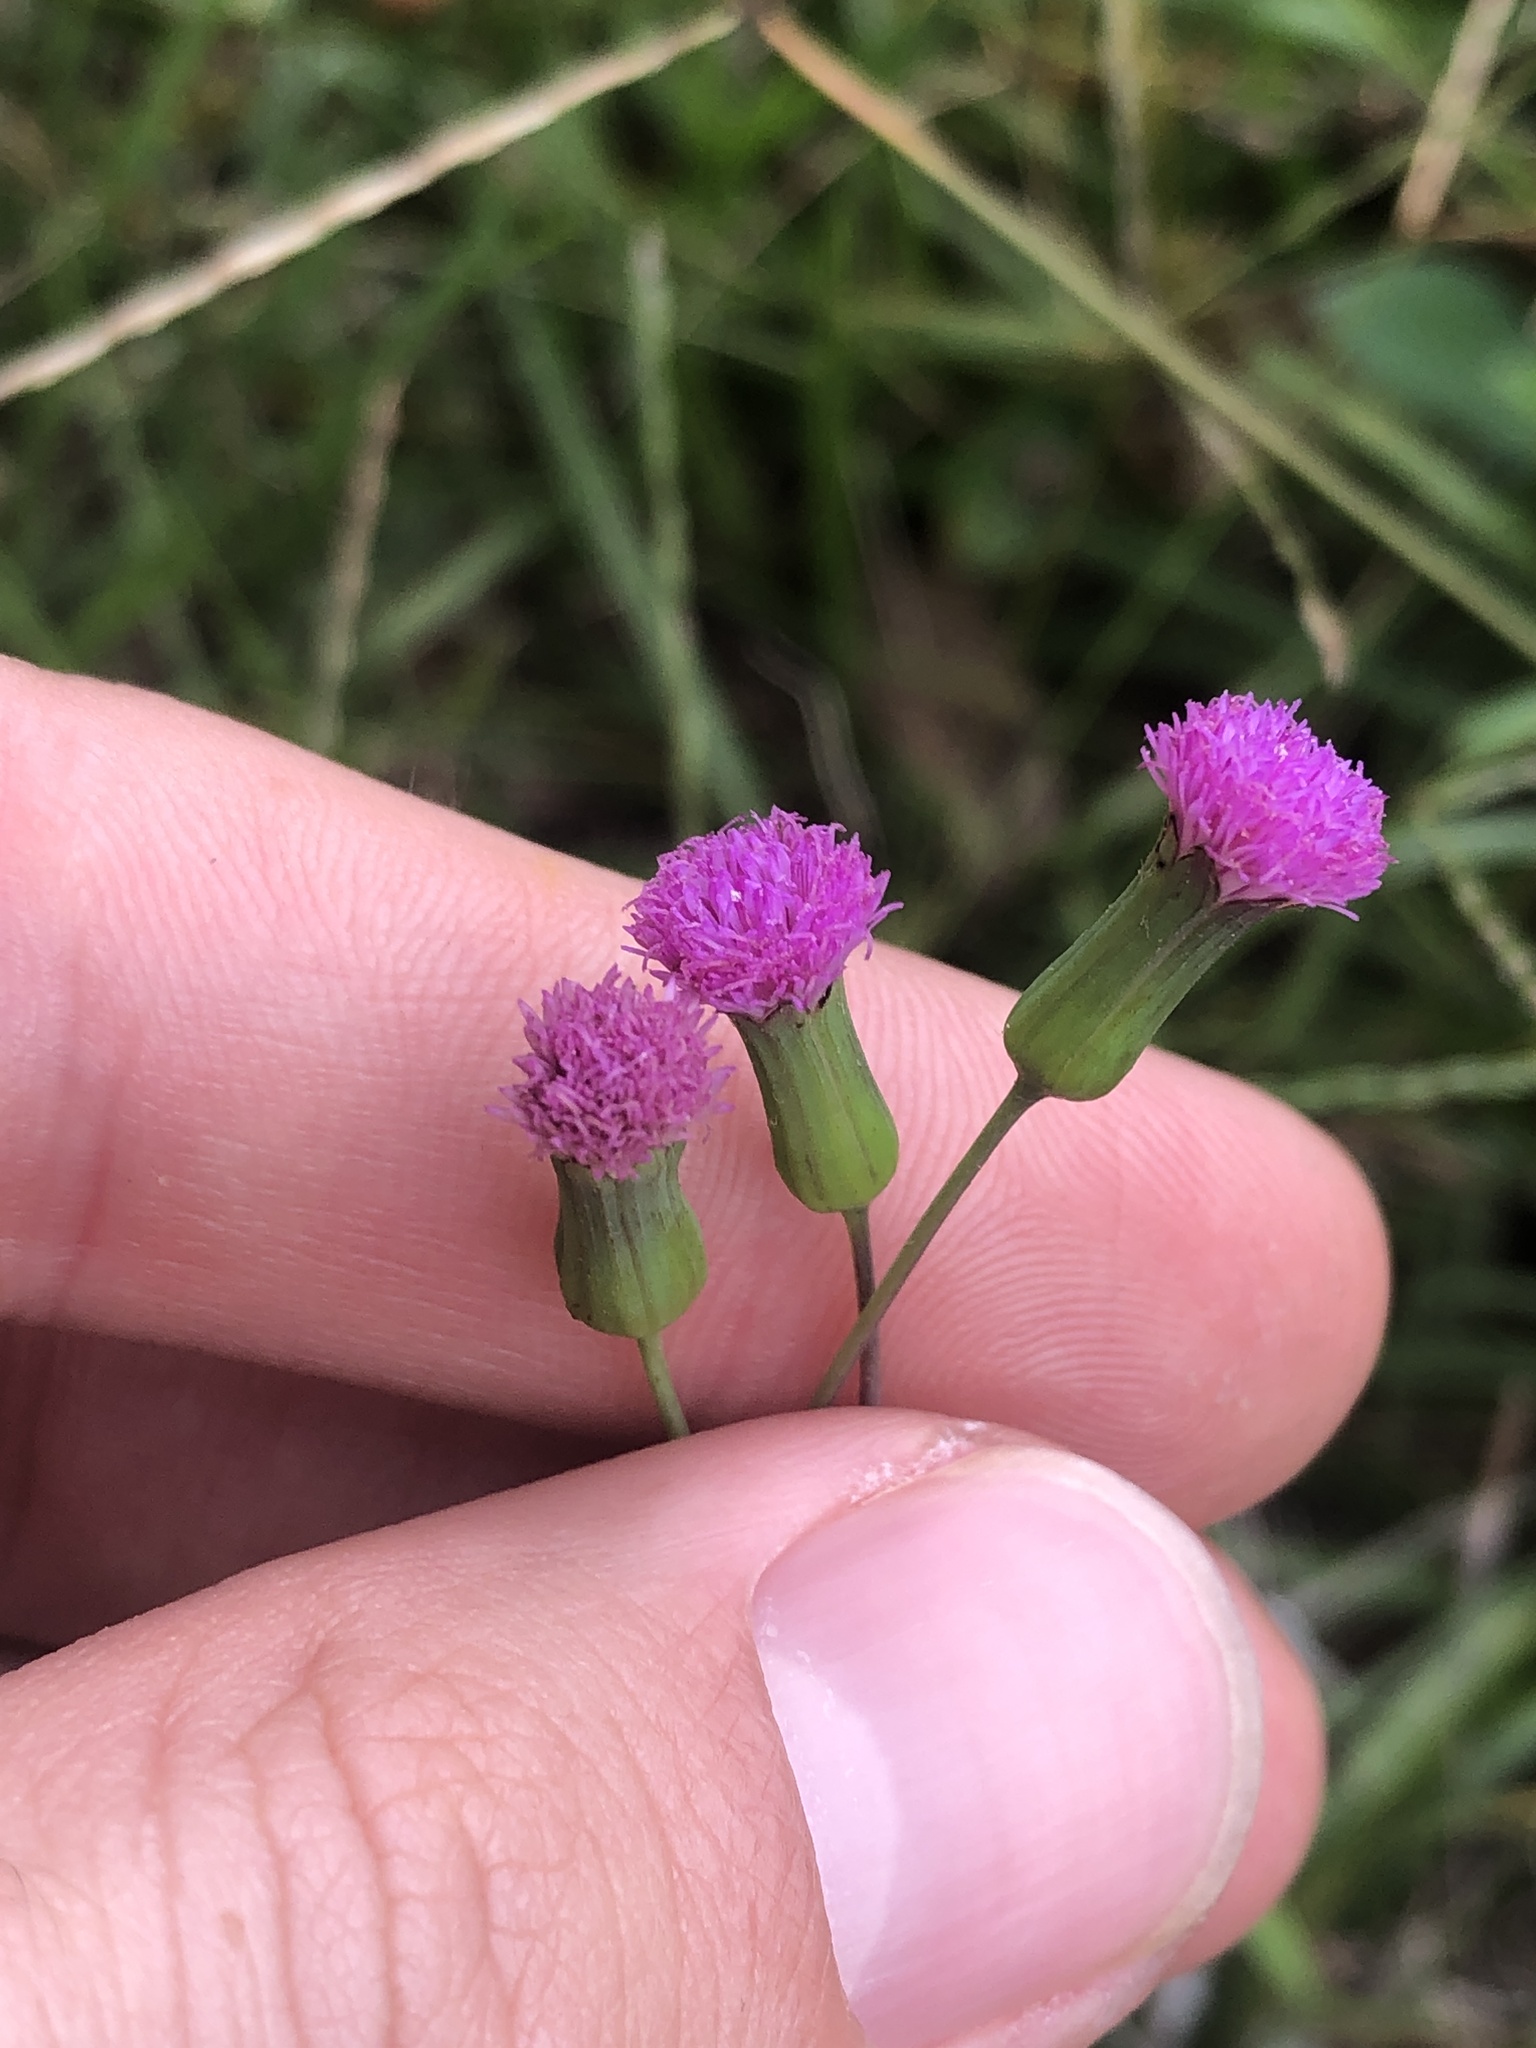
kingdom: Plantae
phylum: Tracheophyta
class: Magnoliopsida
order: Asterales
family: Asteraceae
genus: Emilia
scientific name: Emilia sonchifolia
